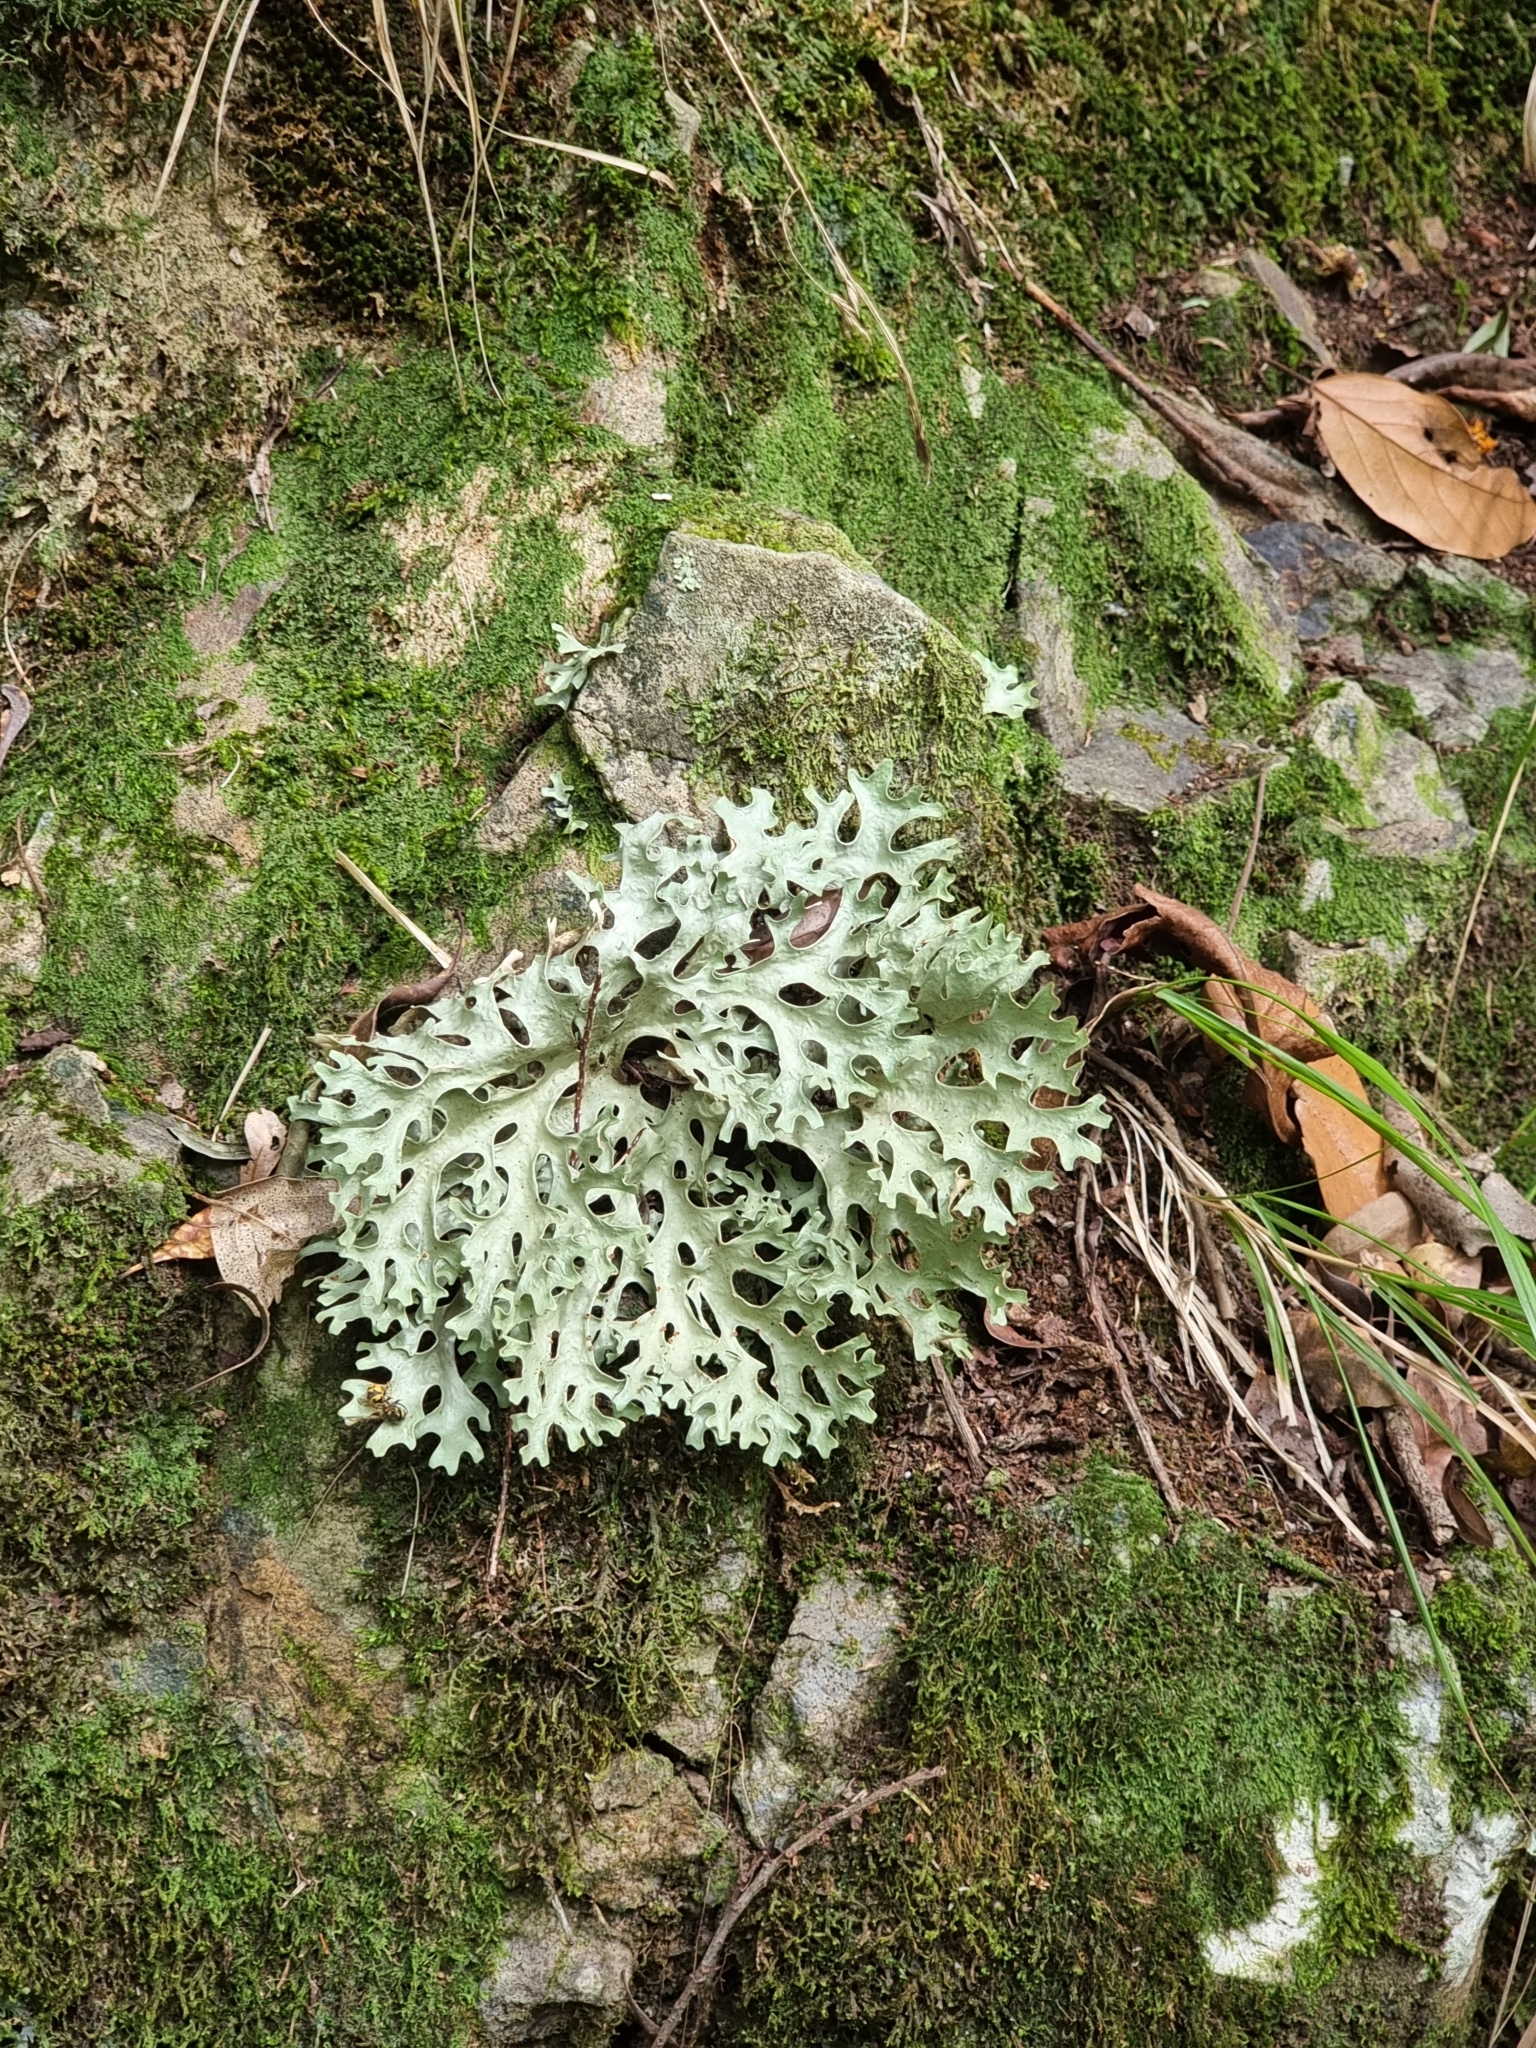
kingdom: Fungi
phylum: Ascomycota
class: Lecanoromycetes
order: Peltigerales
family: Lobariaceae
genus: Sticta
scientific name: Sticta canariensis
